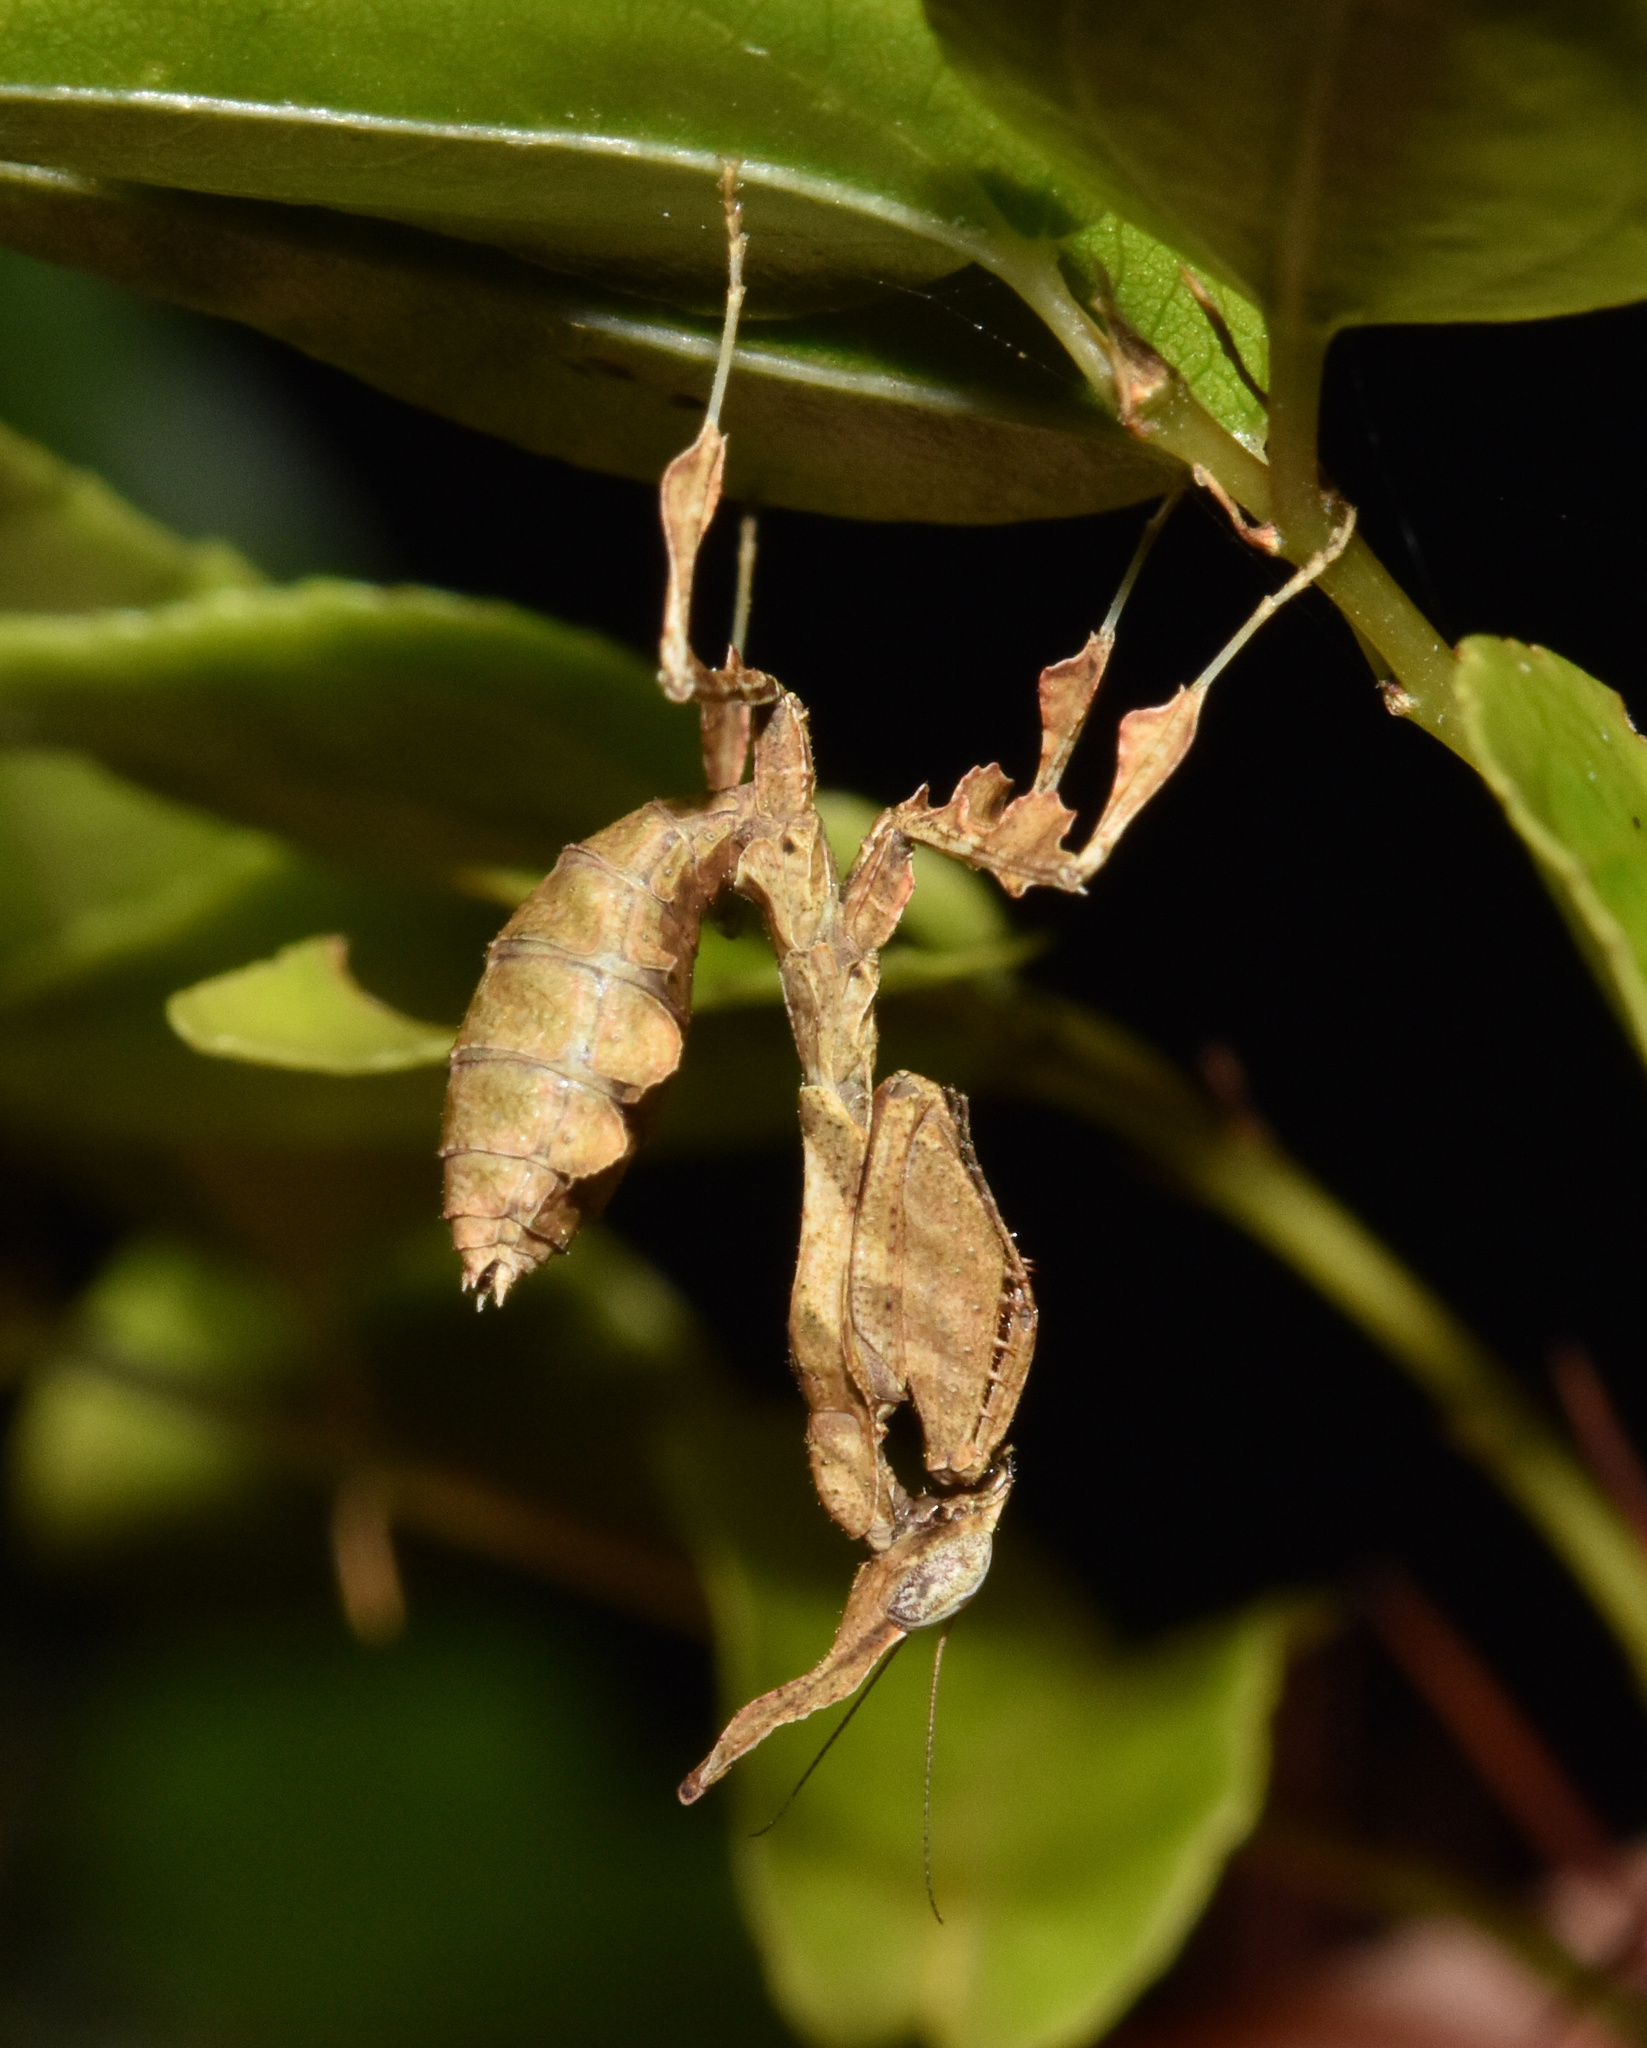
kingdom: Animalia
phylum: Arthropoda
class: Insecta
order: Mantodea
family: Hymenopodidae
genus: Phyllocrania
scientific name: Phyllocrania paradoxa
